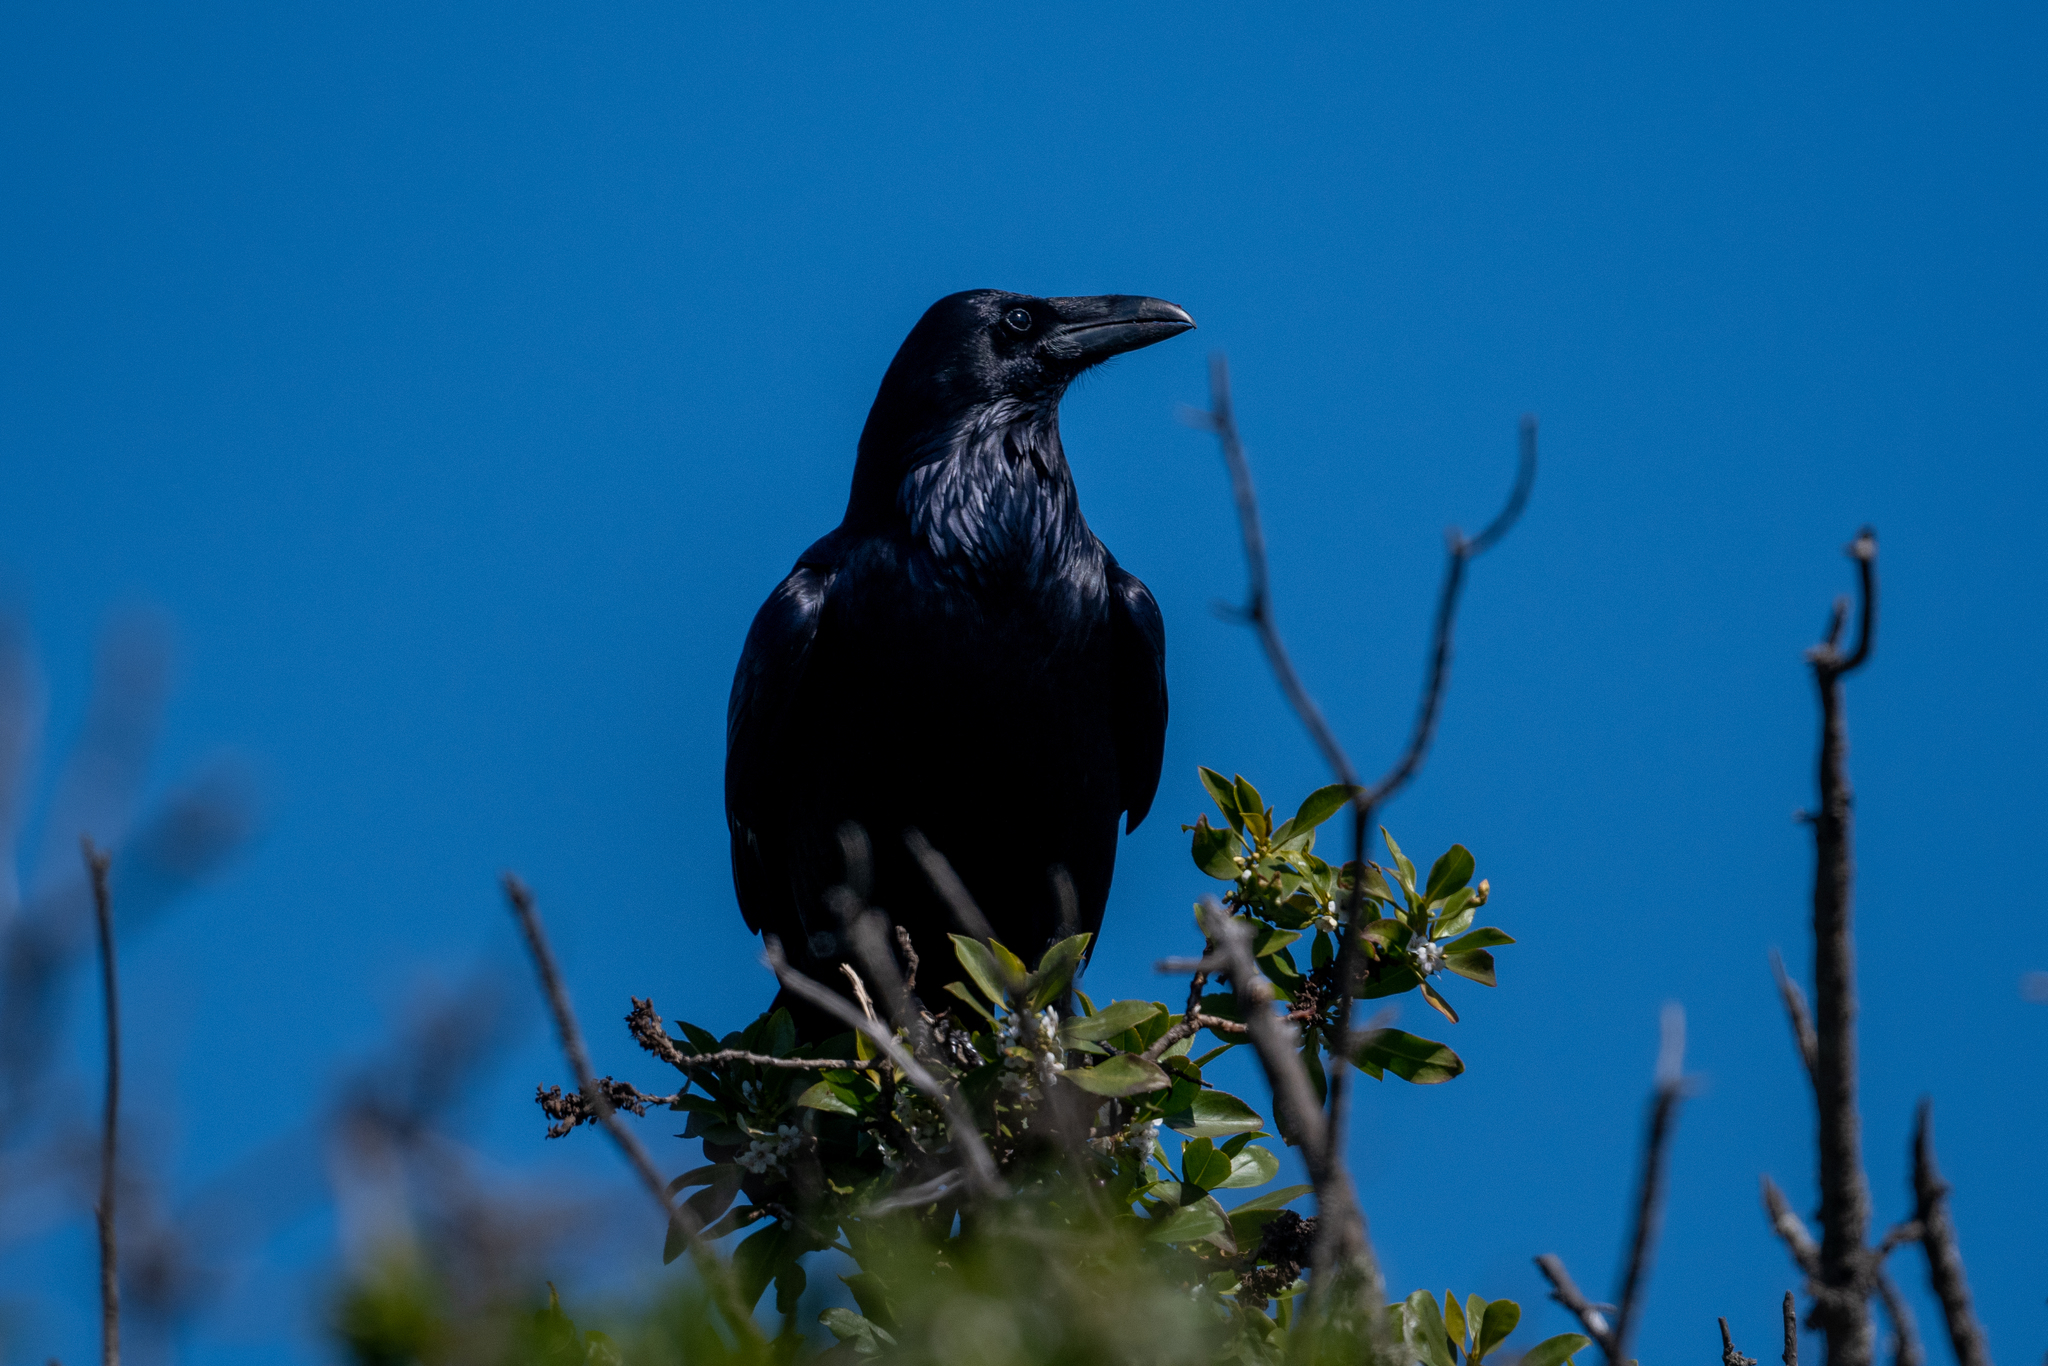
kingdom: Animalia
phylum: Chordata
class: Aves
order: Passeriformes
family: Corvidae
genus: Corvus
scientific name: Corvus corax
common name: Common raven
